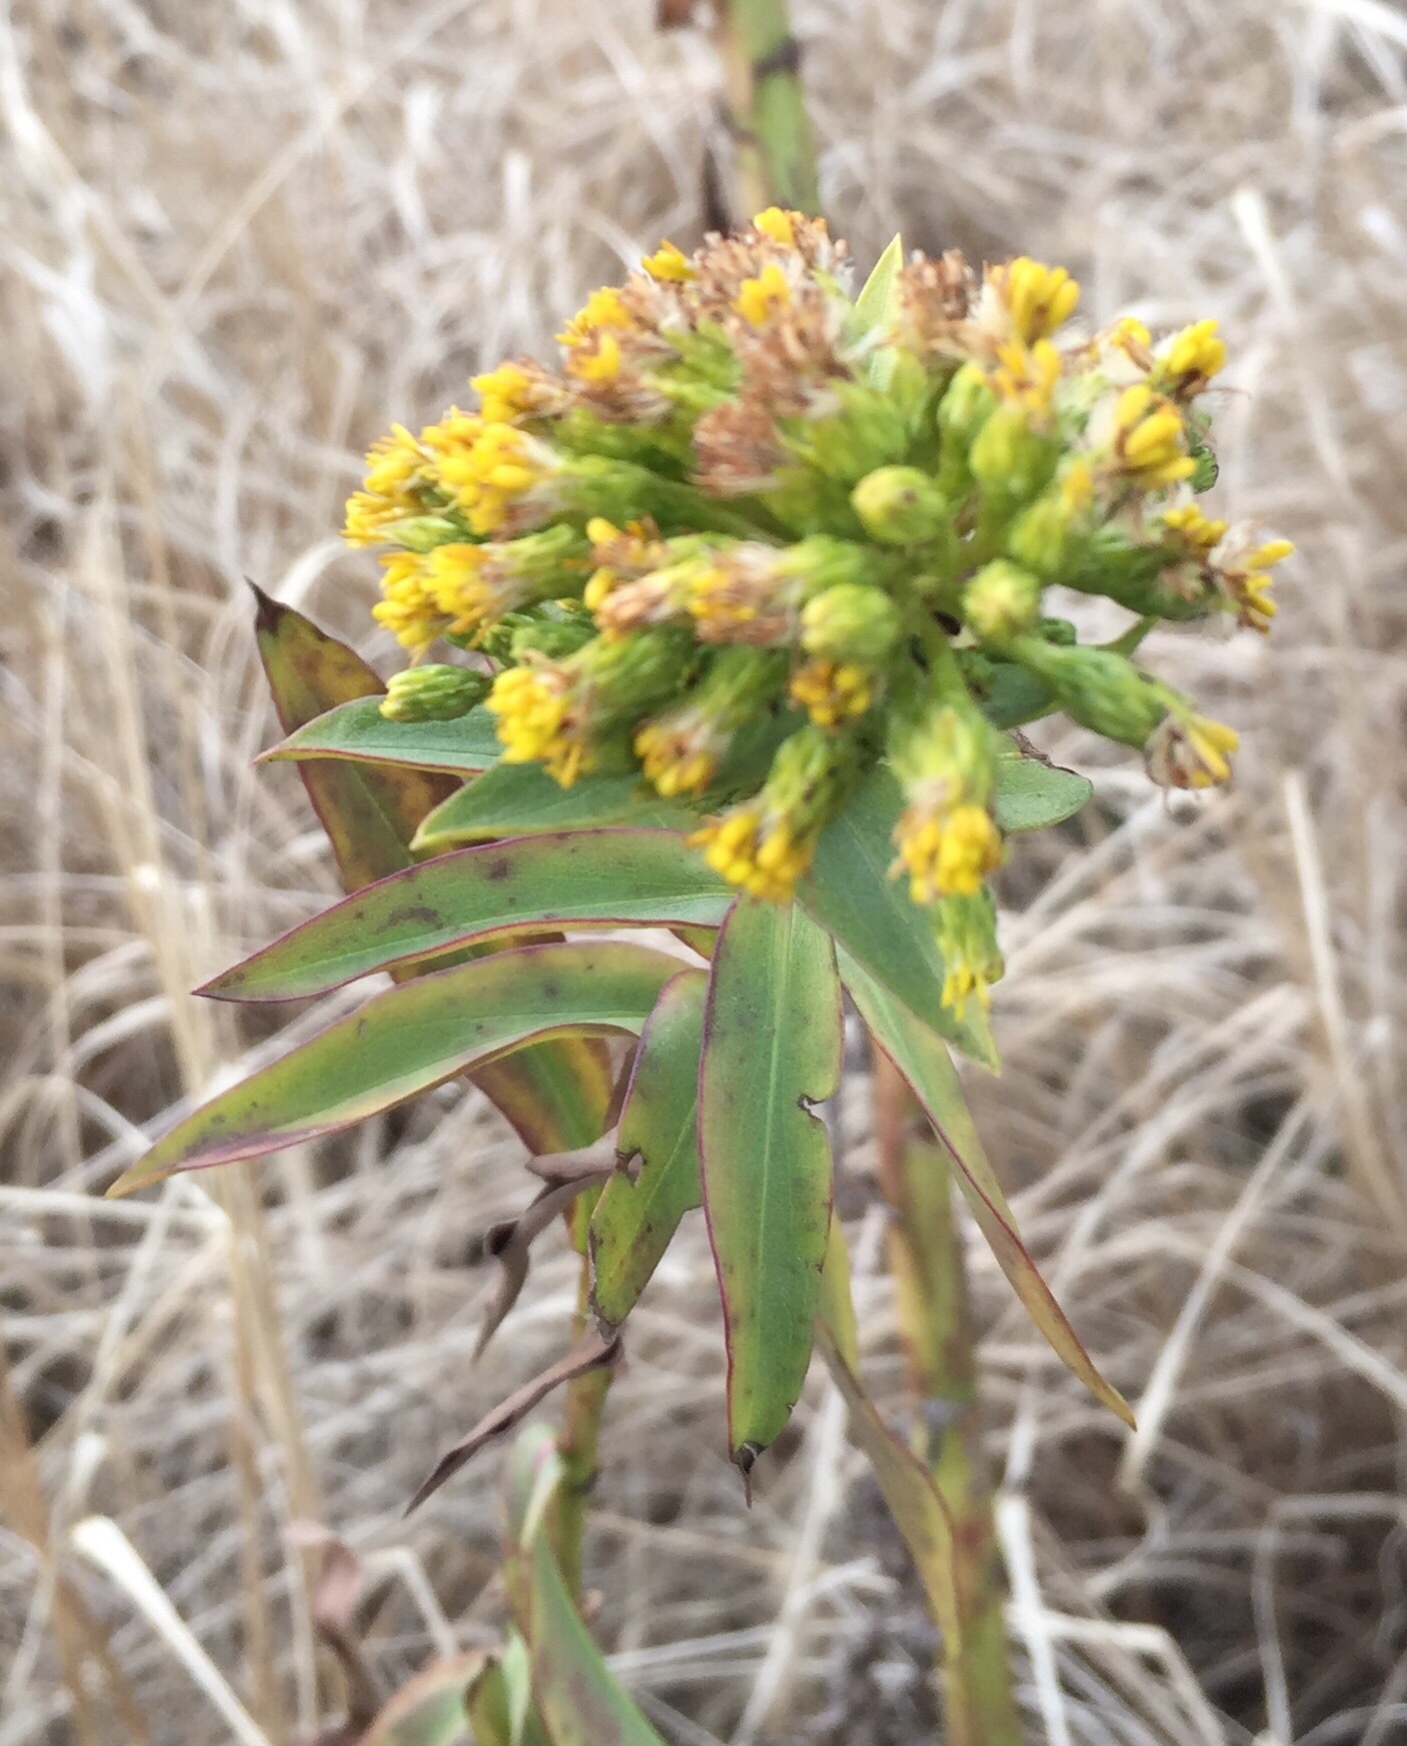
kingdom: Plantae
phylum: Tracheophyta
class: Magnoliopsida
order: Asterales
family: Asteraceae
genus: Solidago
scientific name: Solidago sempervirens
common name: Salt-marsh goldenrod
